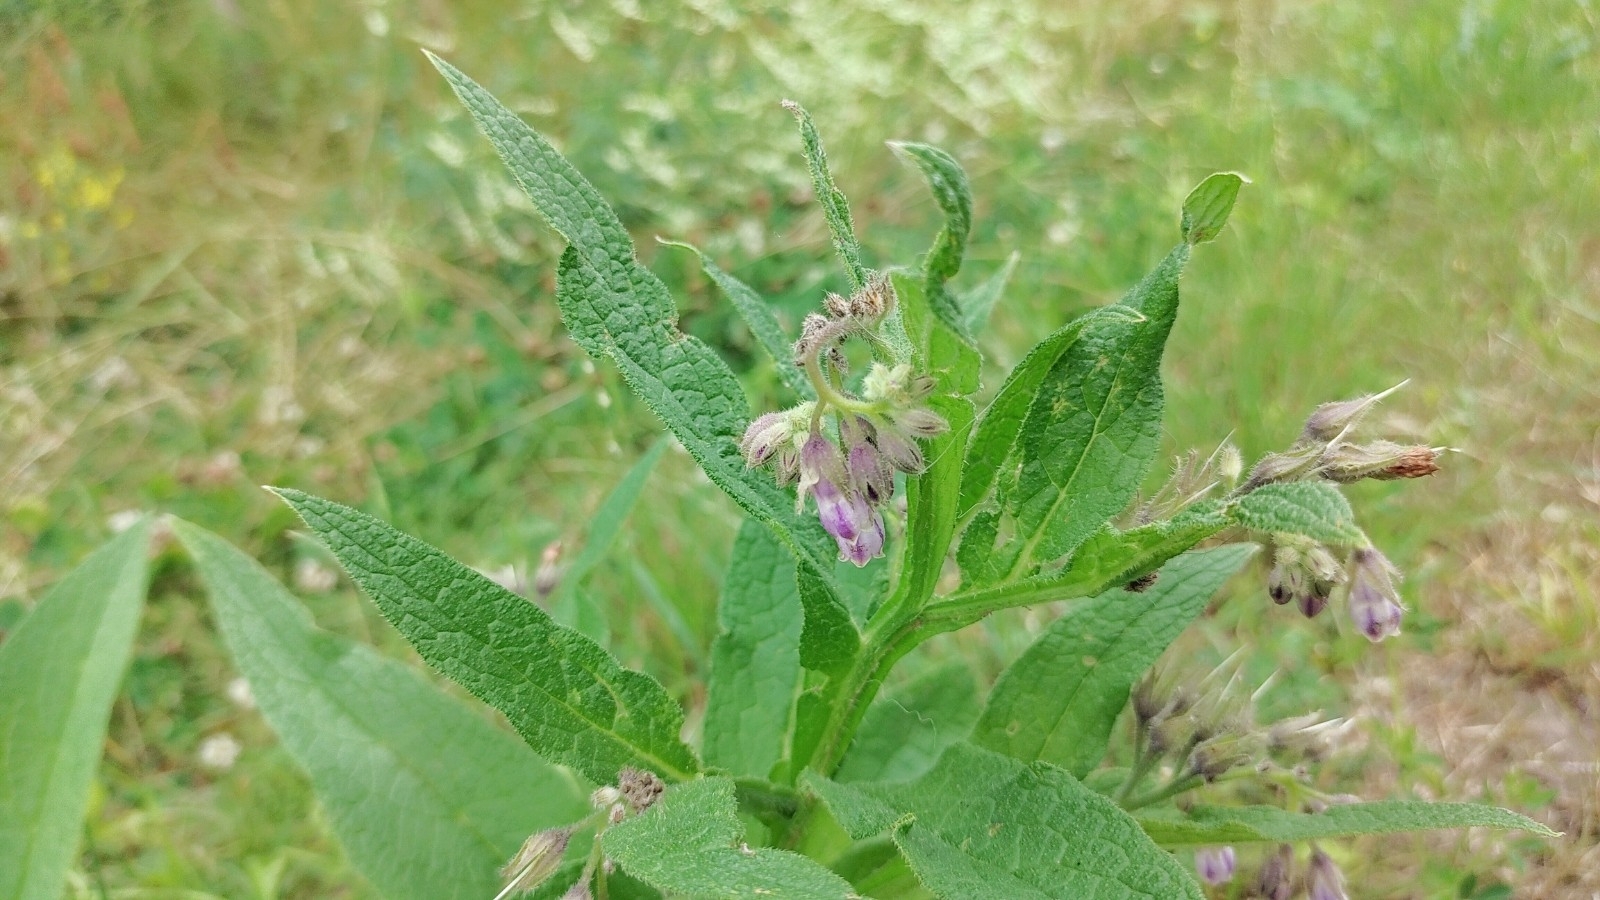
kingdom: Plantae
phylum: Tracheophyta
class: Magnoliopsida
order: Boraginales
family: Boraginaceae
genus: Symphytum
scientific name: Symphytum officinale
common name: Common comfrey
